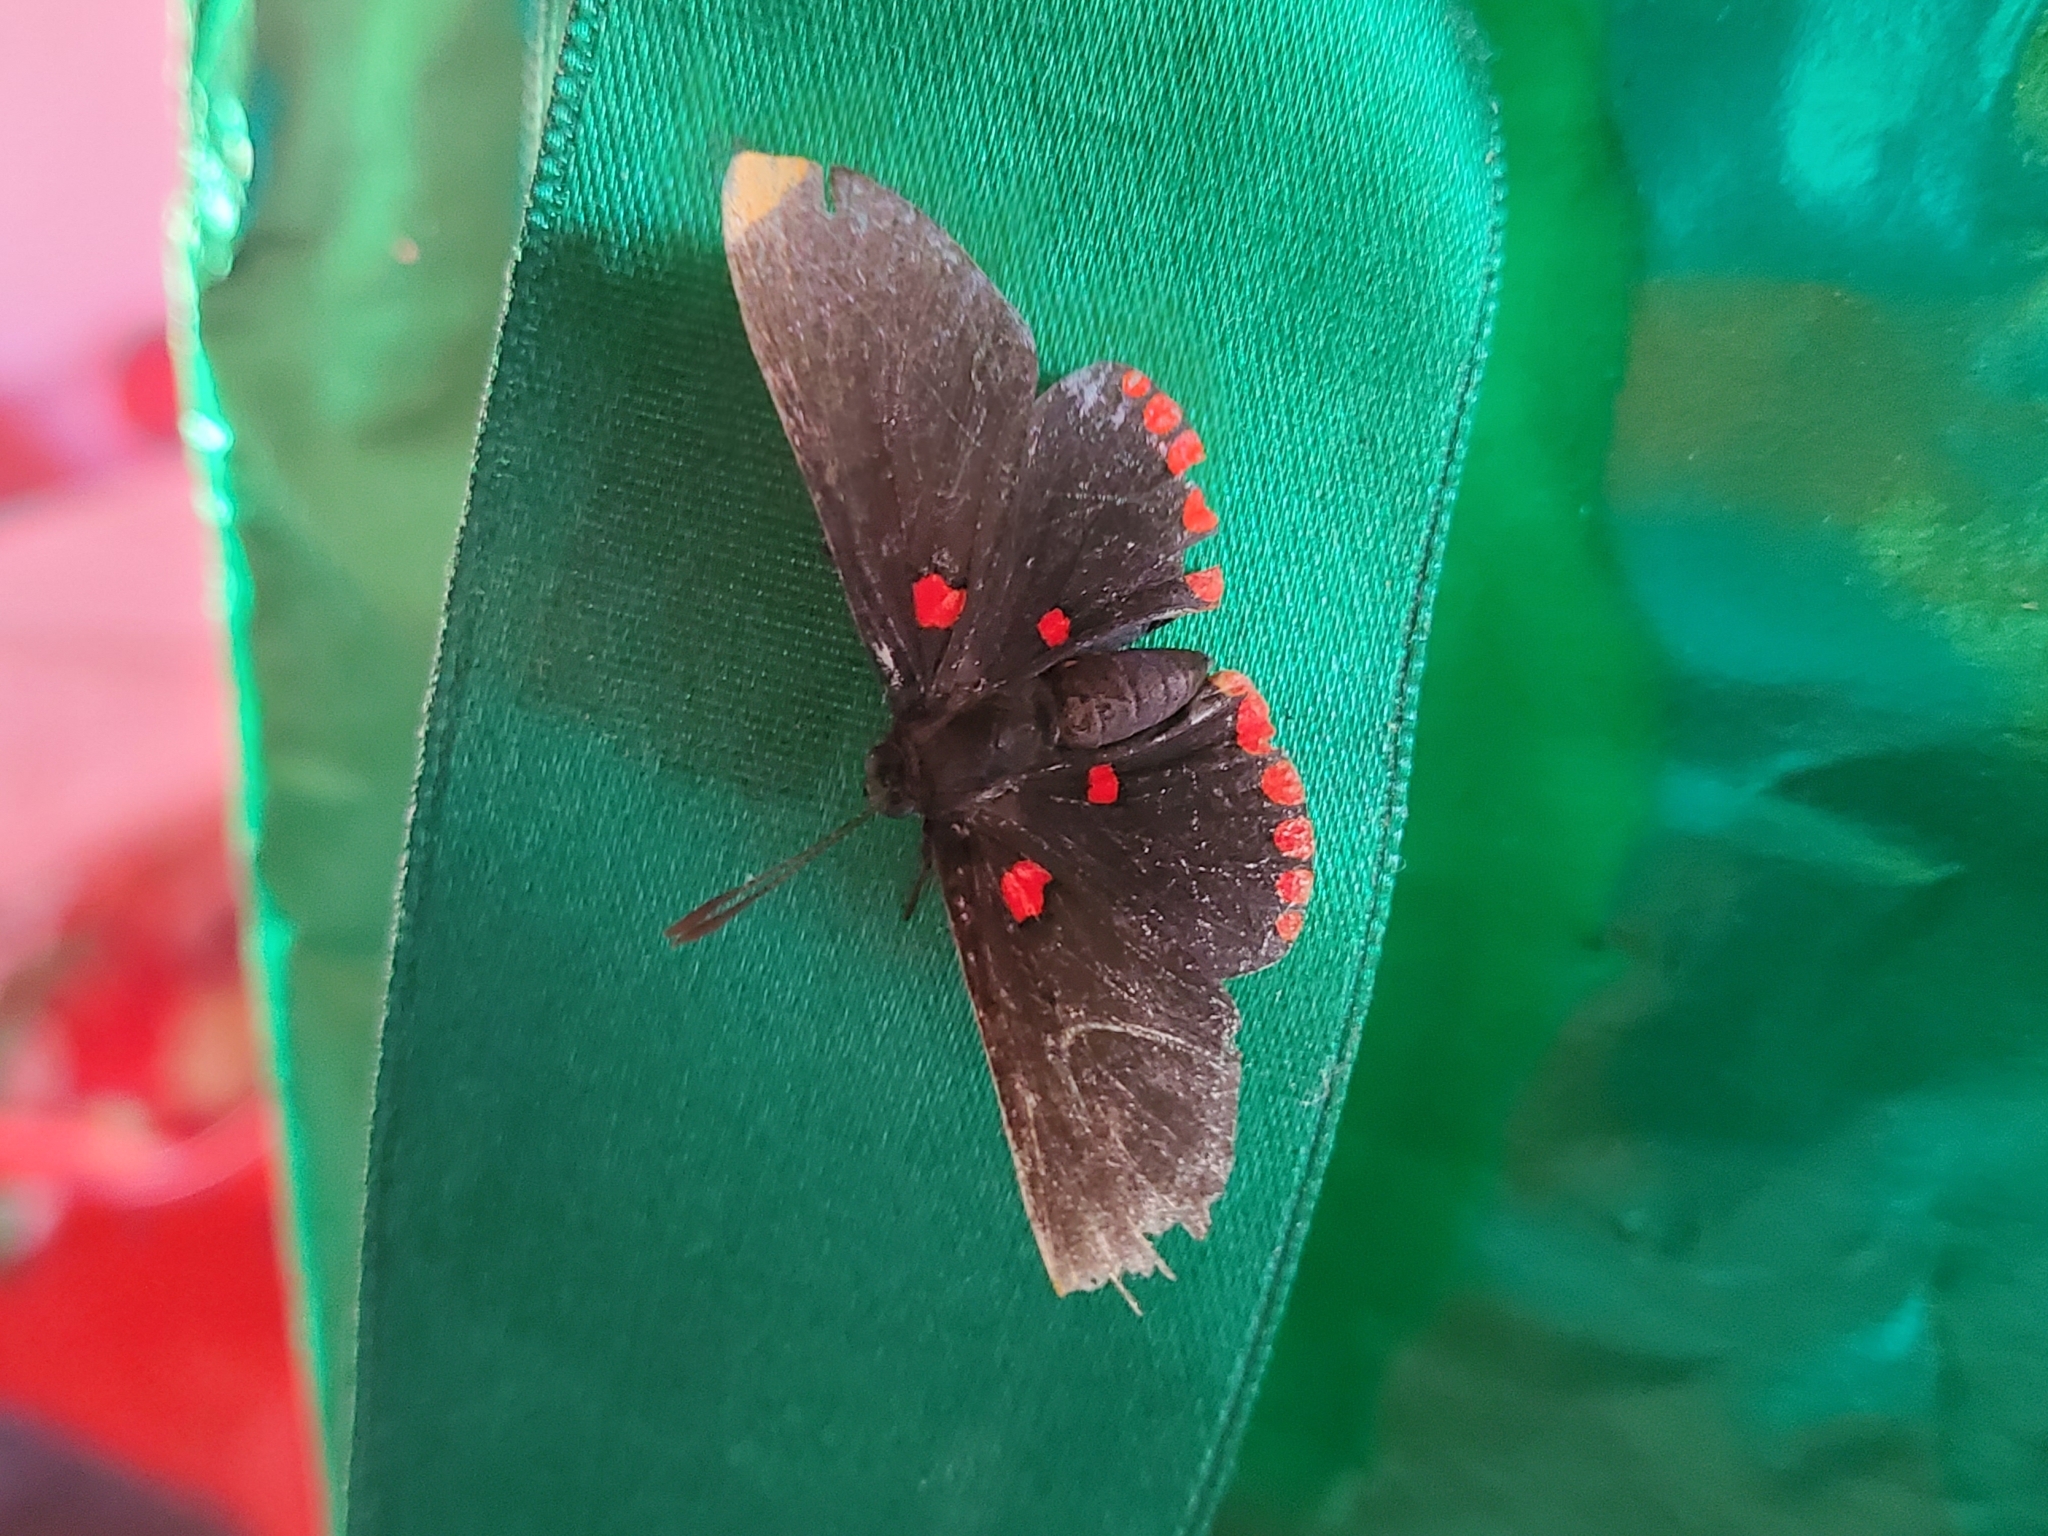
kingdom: Animalia
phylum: Arthropoda
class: Insecta
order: Lepidoptera
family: Lycaenidae
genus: Melanis
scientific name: Melanis pixe
